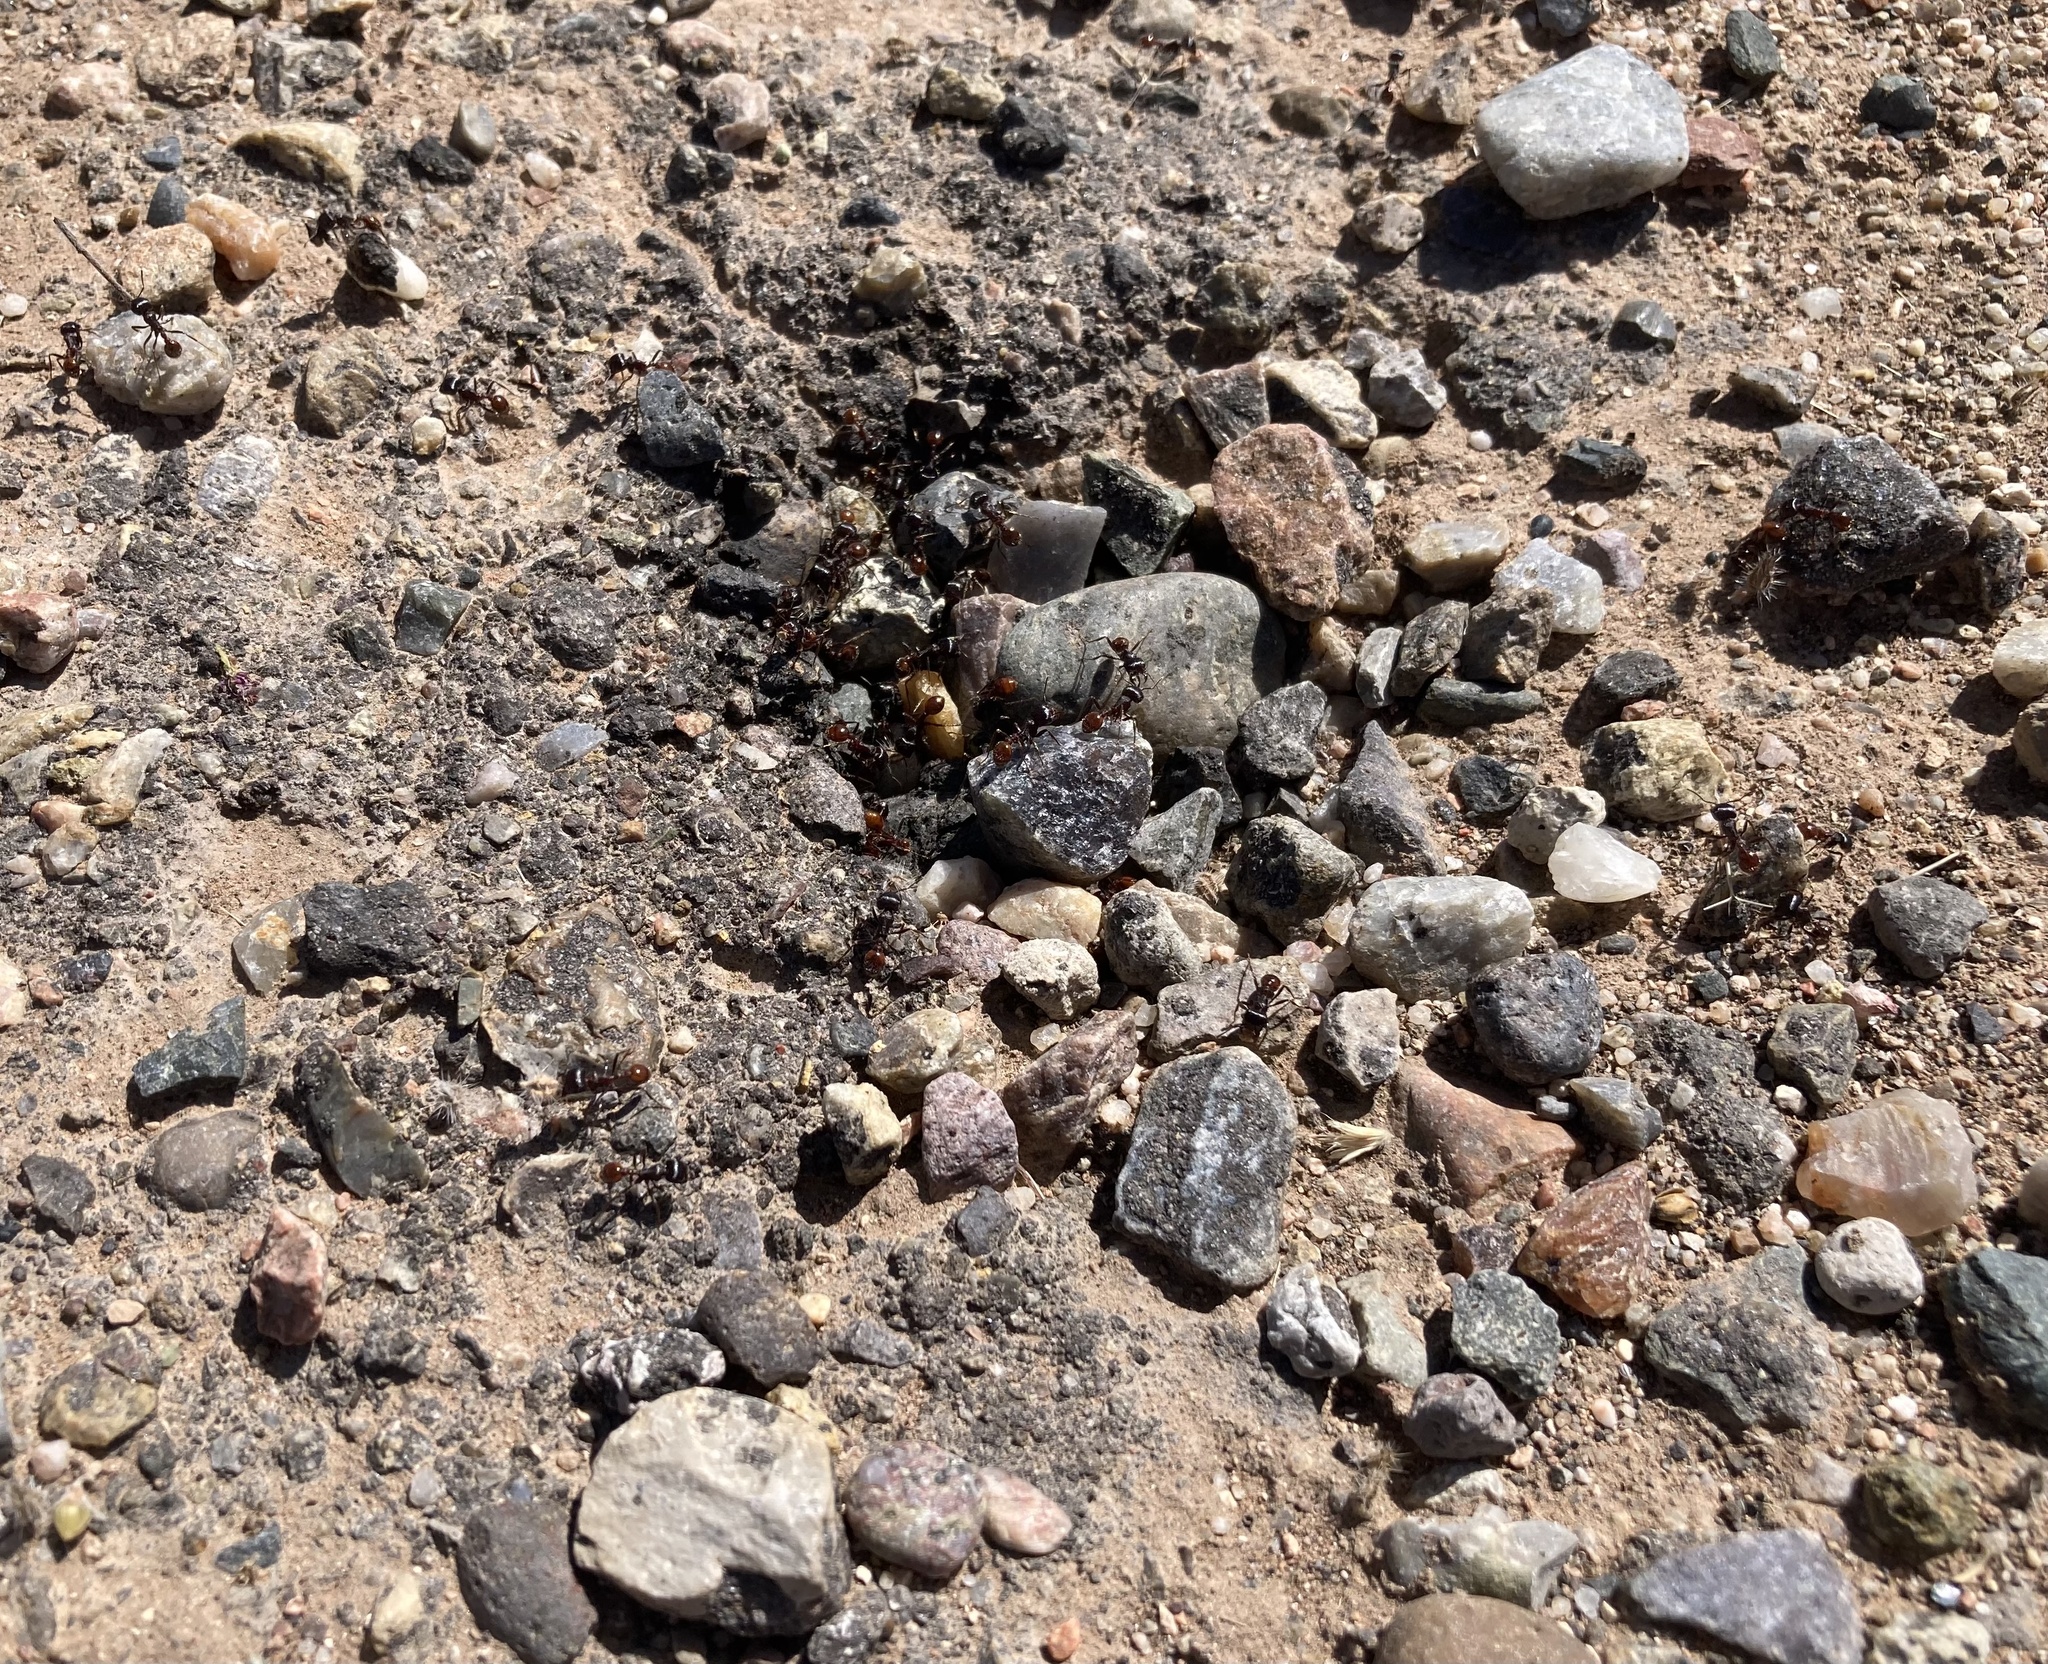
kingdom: Animalia
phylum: Arthropoda
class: Insecta
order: Hymenoptera
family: Formicidae
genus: Pogonomyrmex
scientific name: Pogonomyrmex rugosus
